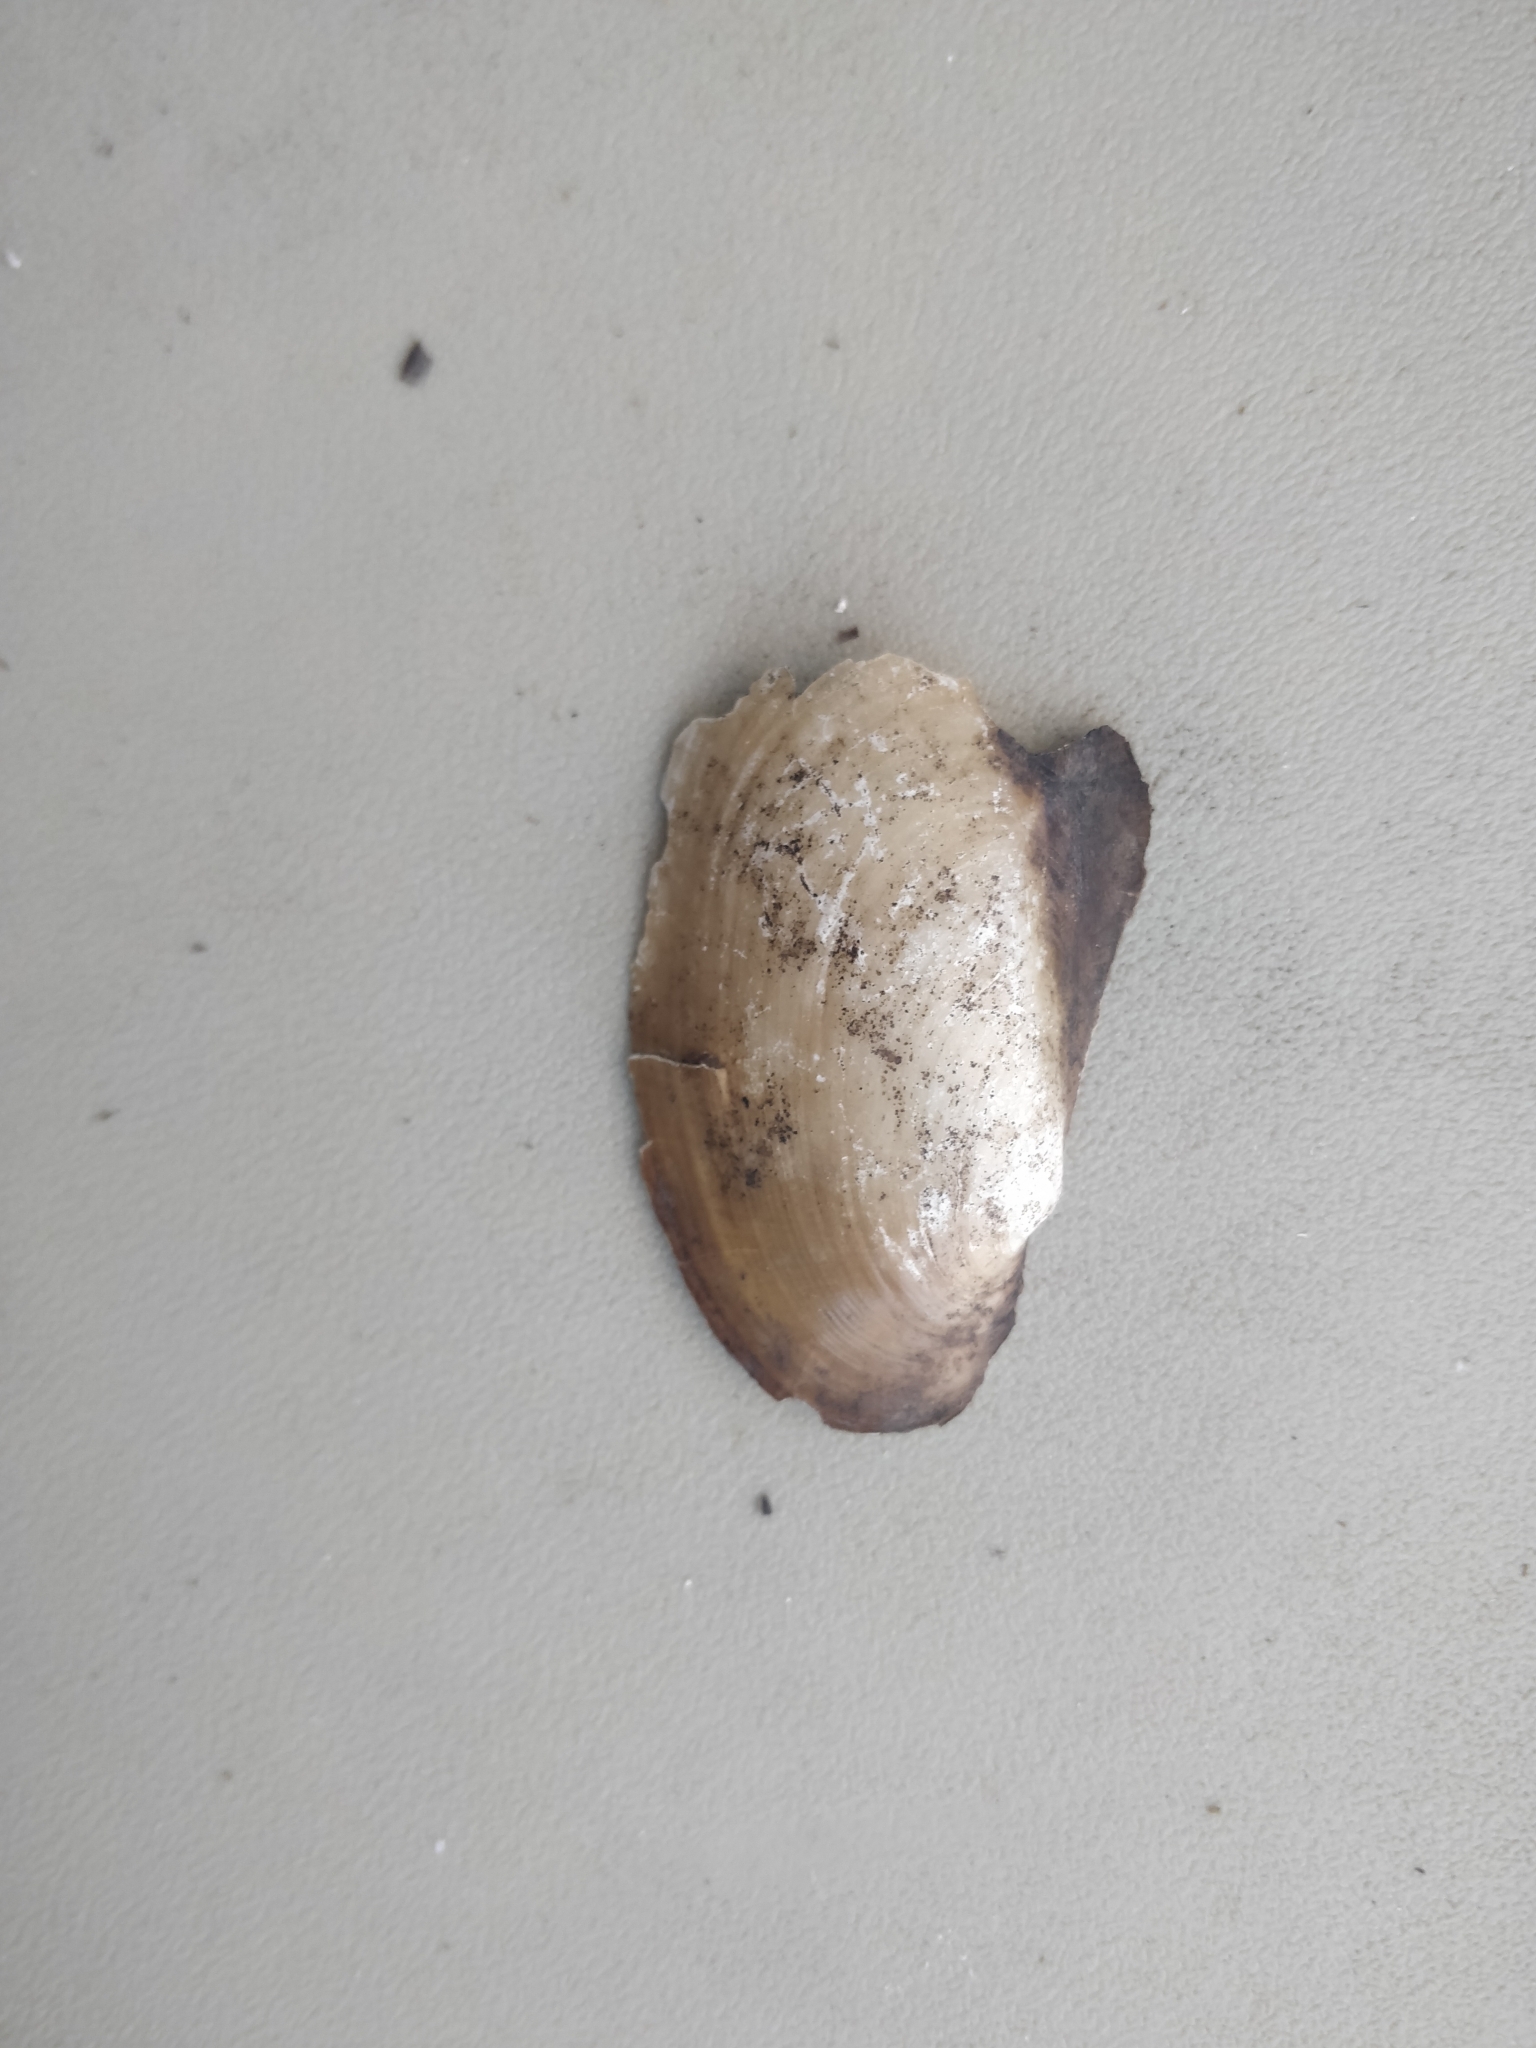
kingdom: Animalia
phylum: Mollusca
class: Bivalvia
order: Unionida
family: Unionidae
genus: Potamilus
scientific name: Potamilus fragilis
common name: Fragile papershell
